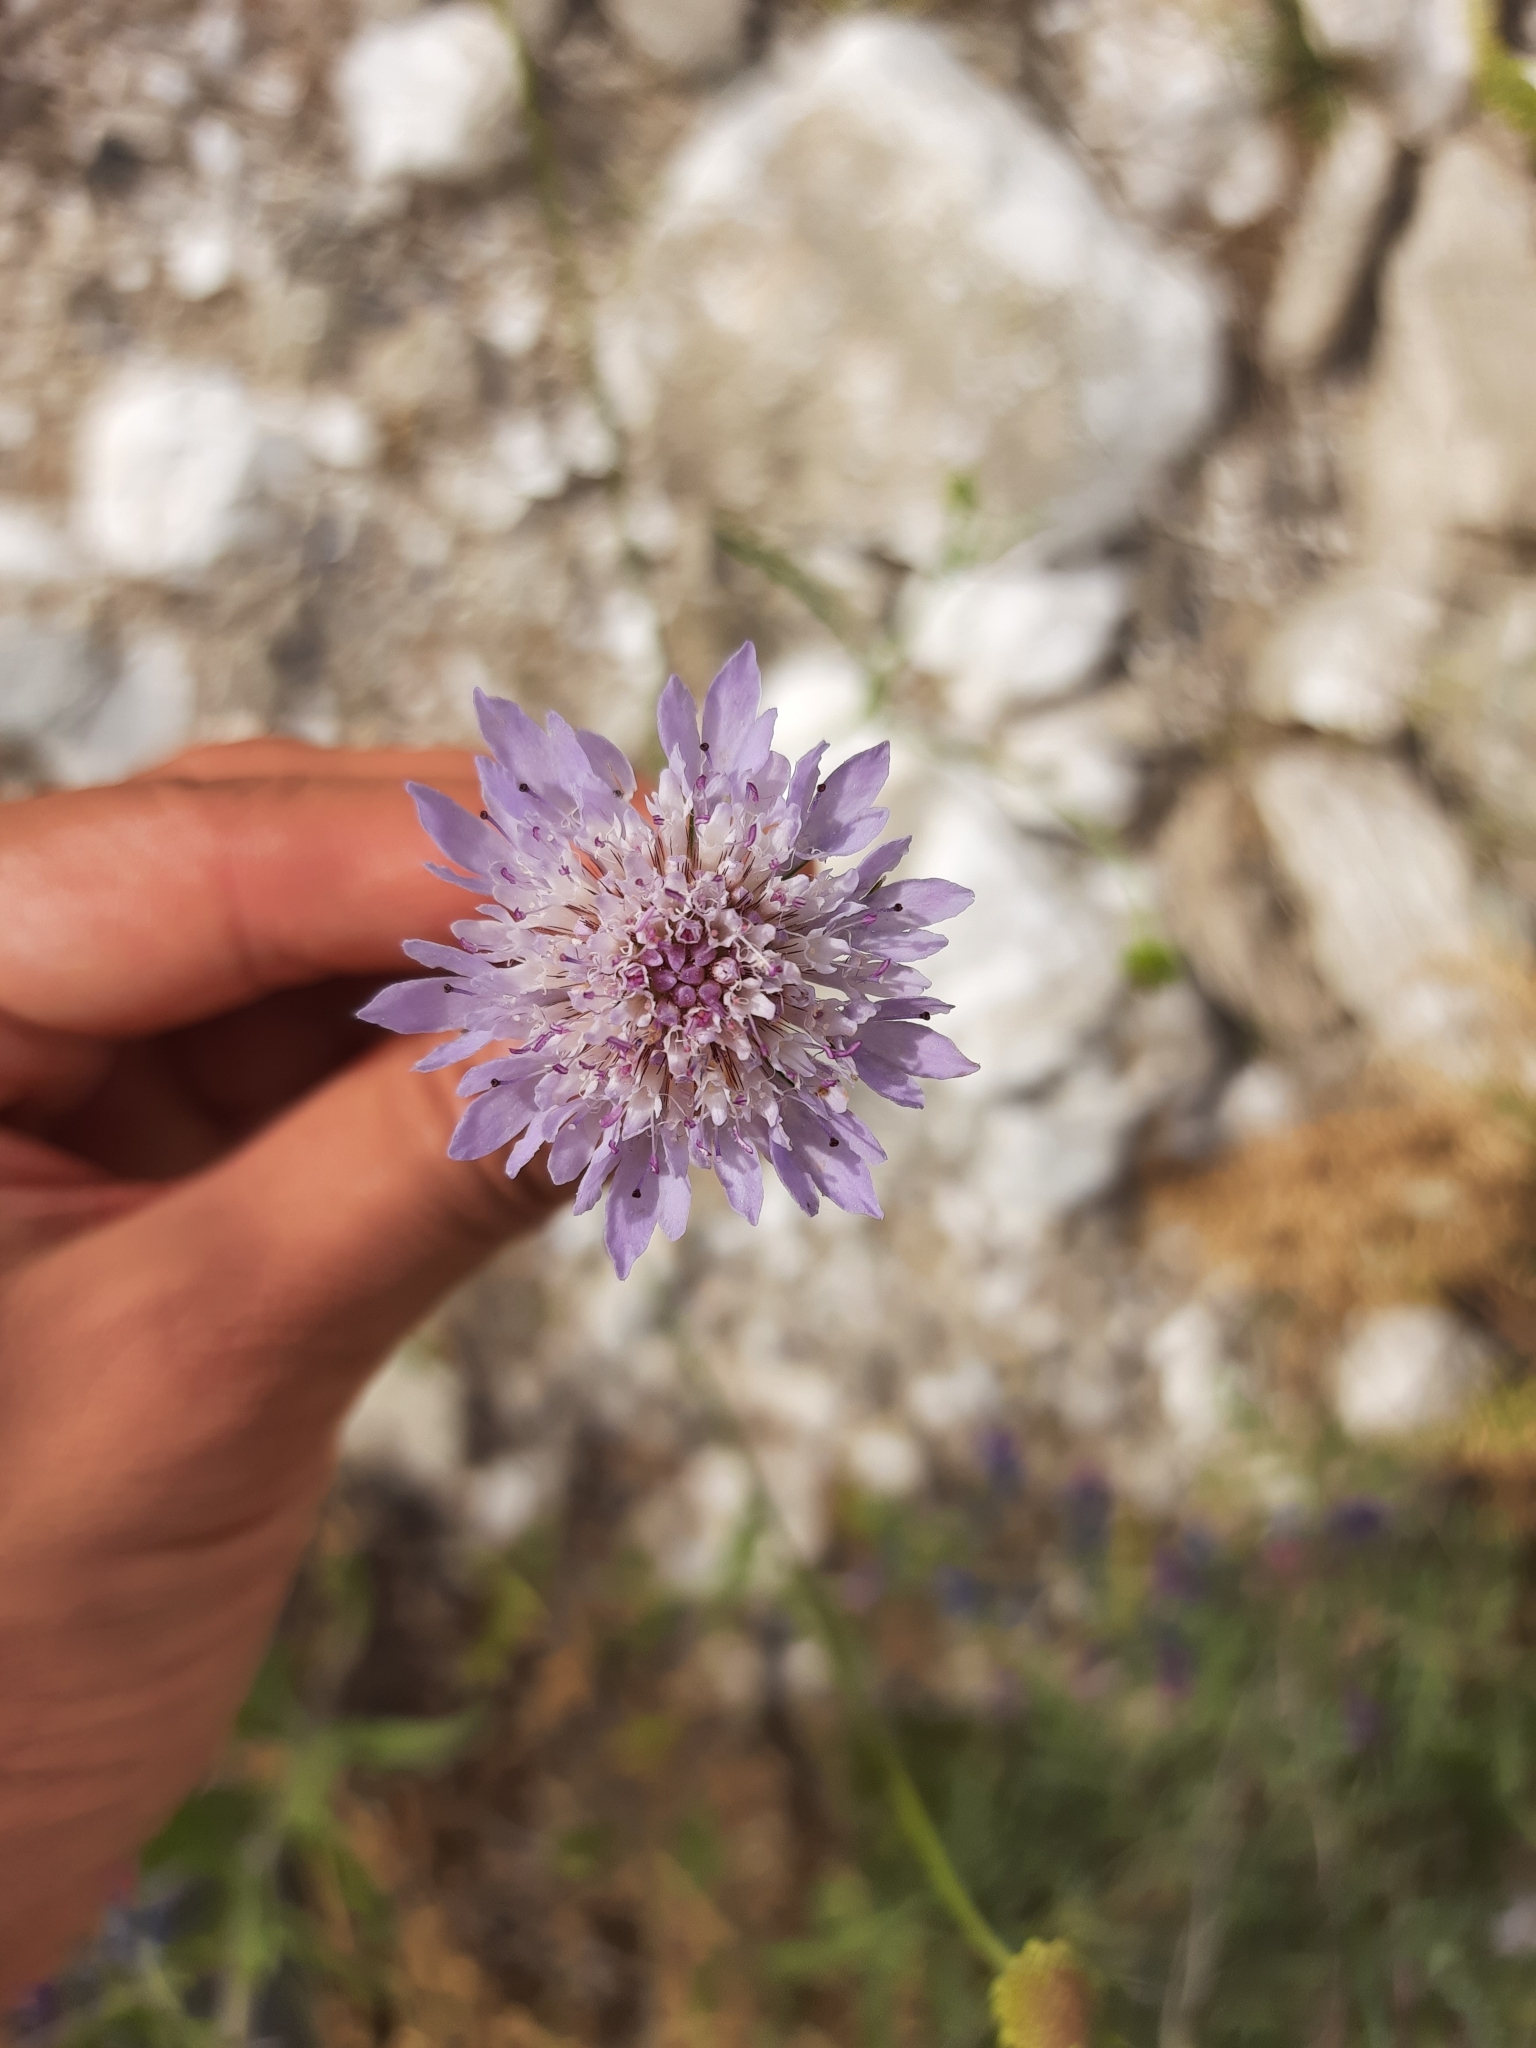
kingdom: Plantae
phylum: Tracheophyta
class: Magnoliopsida
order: Dipsacales
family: Caprifoliaceae
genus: Sixalix
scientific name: Sixalix atropurpurea
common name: Sweet scabious
